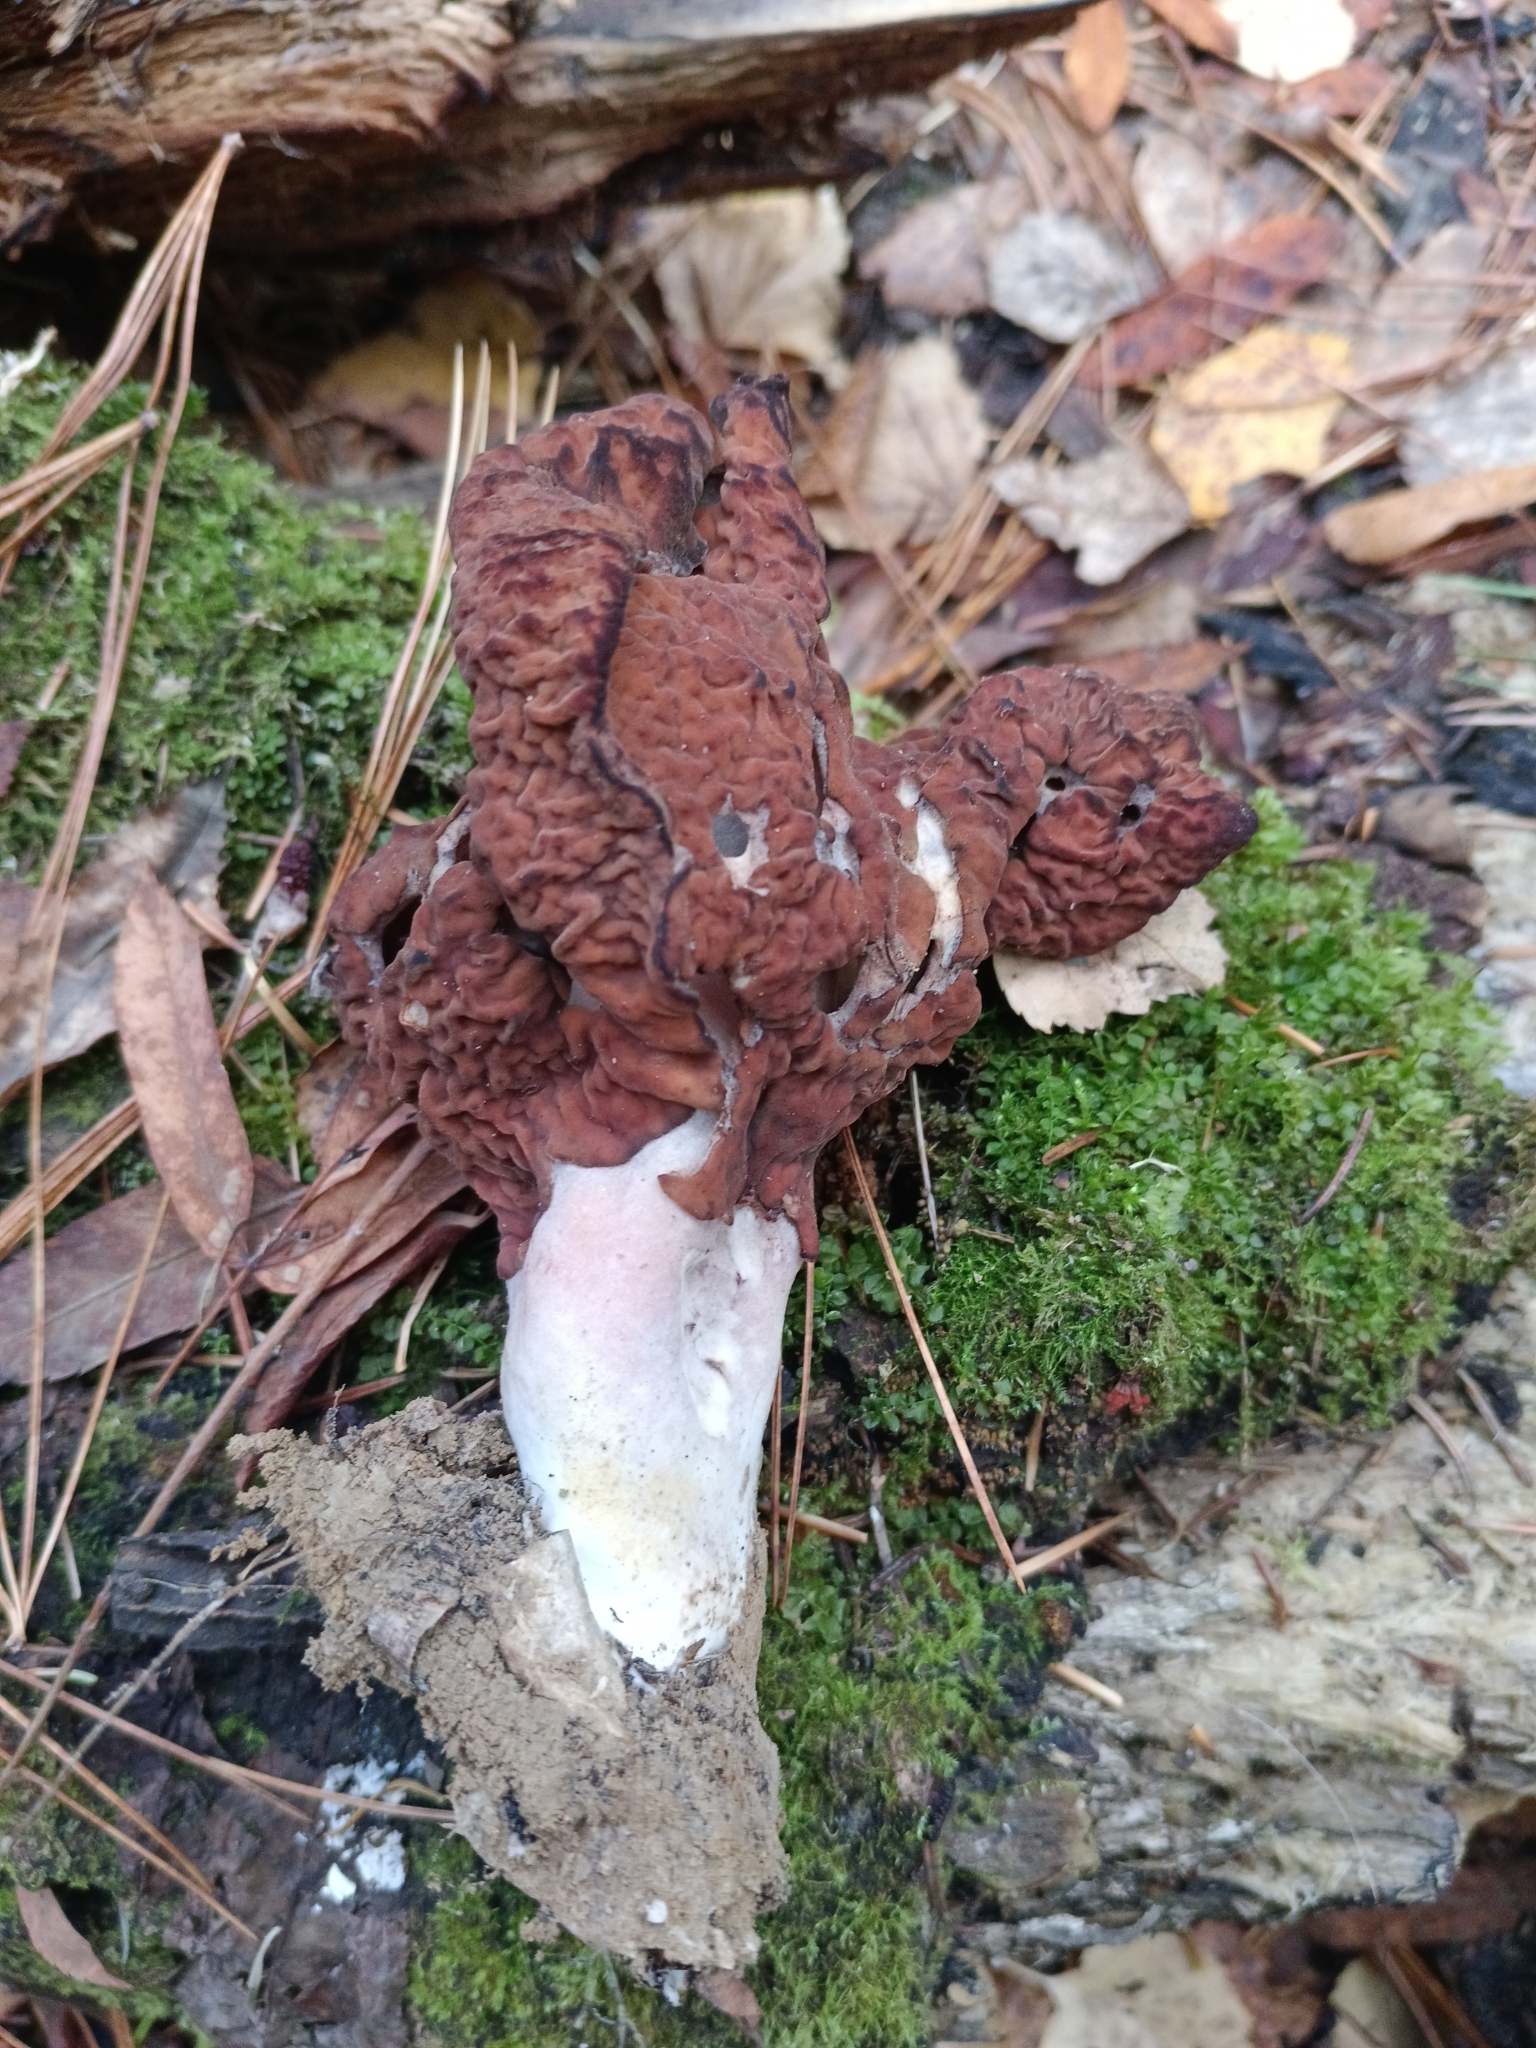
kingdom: Fungi
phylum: Ascomycota
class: Pezizomycetes
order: Pezizales
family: Discinaceae
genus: Gyromitra
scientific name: Gyromitra infula
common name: Pouched false morel
